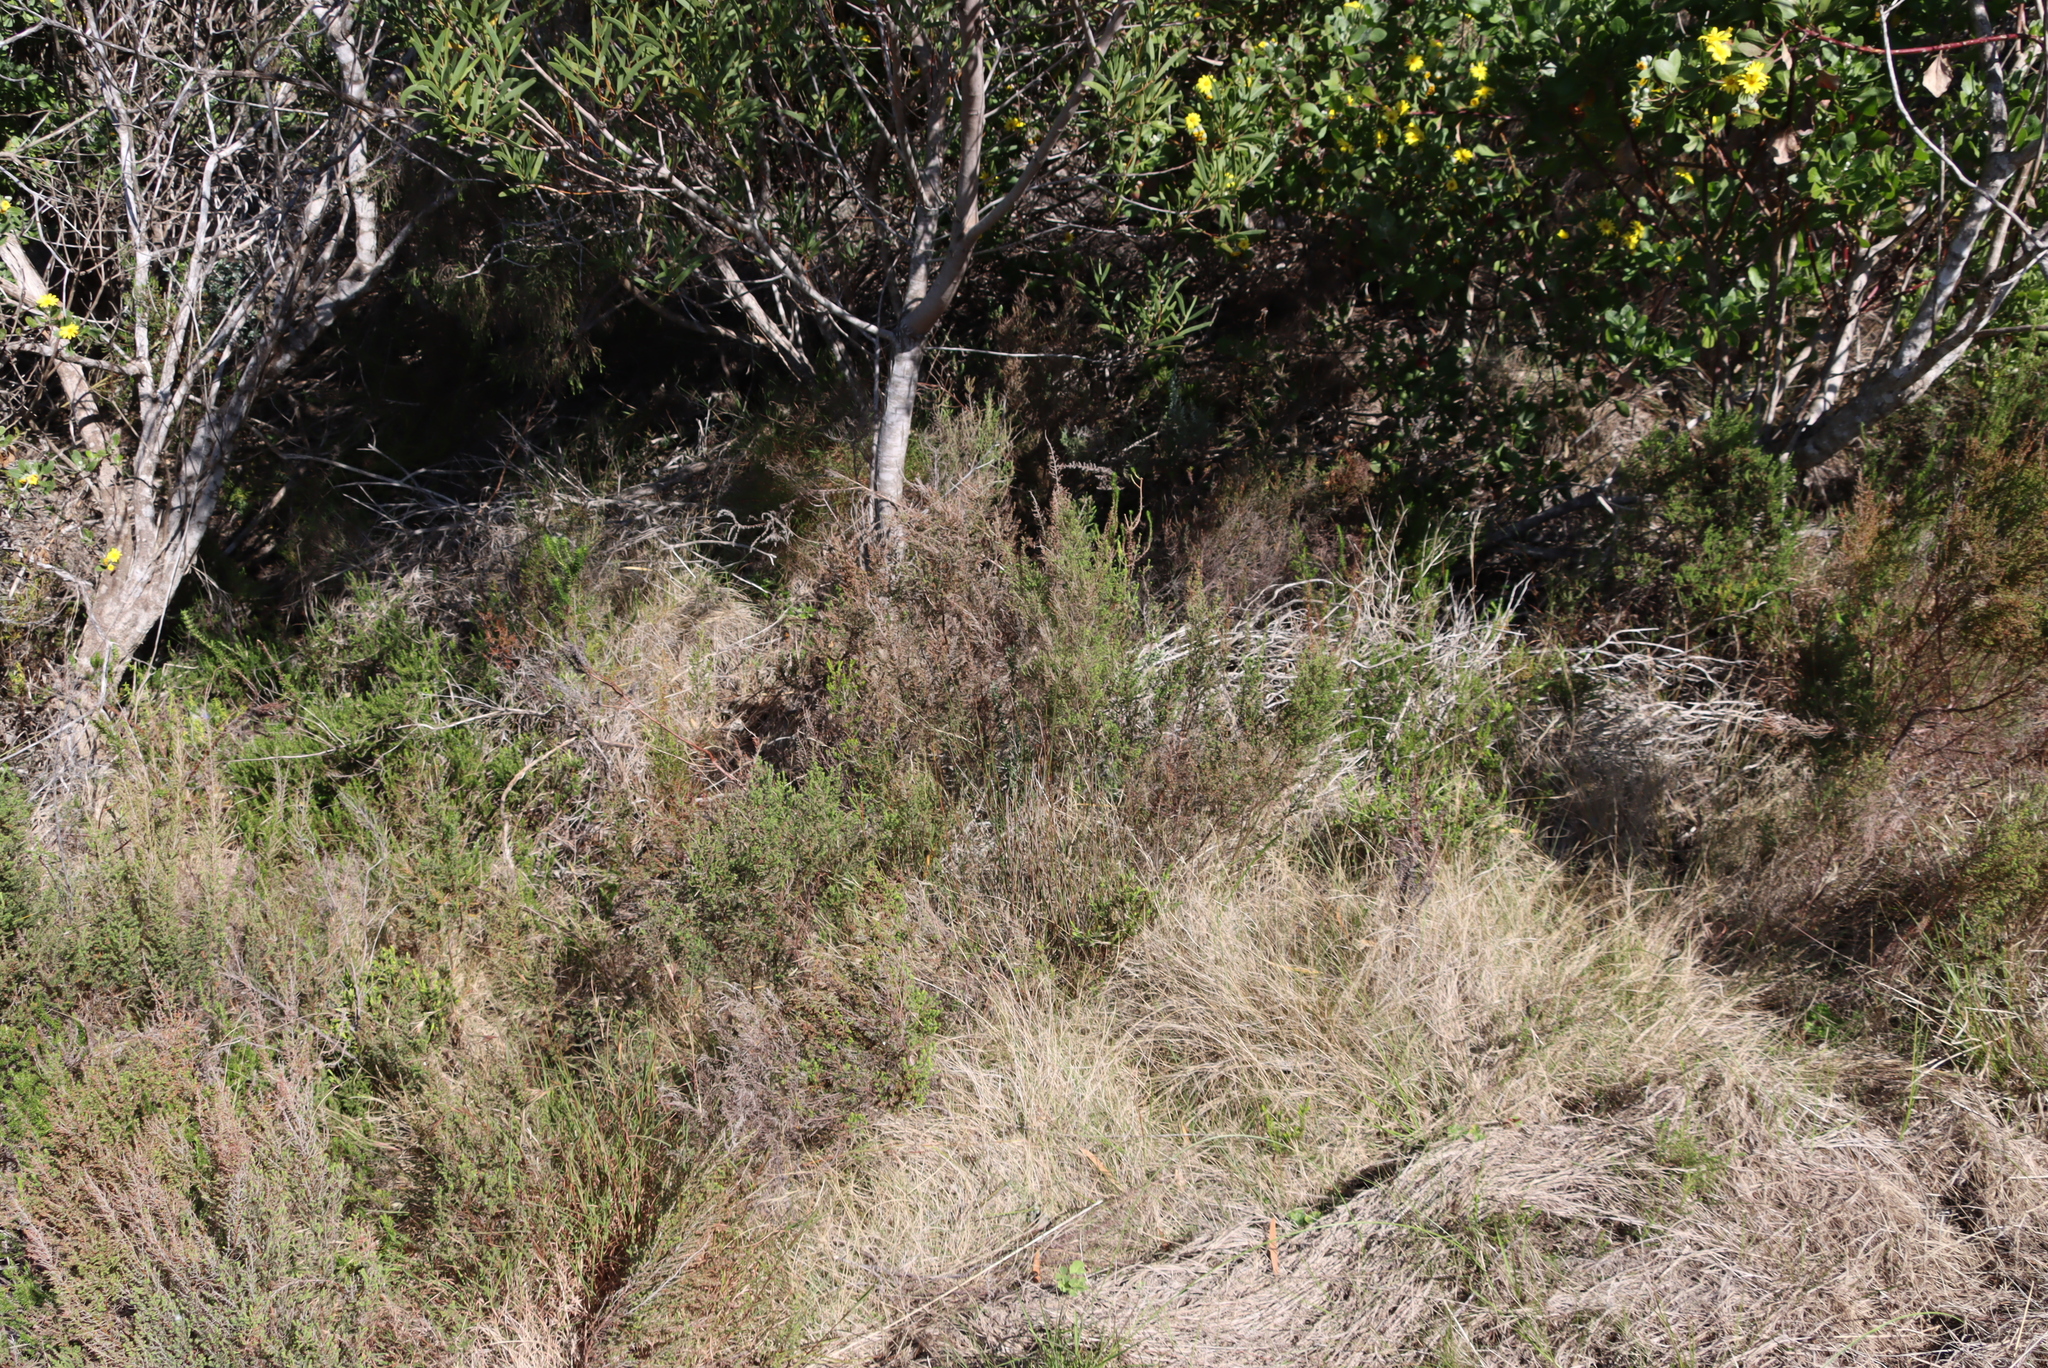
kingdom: Plantae
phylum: Tracheophyta
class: Magnoliopsida
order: Ericales
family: Ericaceae
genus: Erica
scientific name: Erica leucopelta
